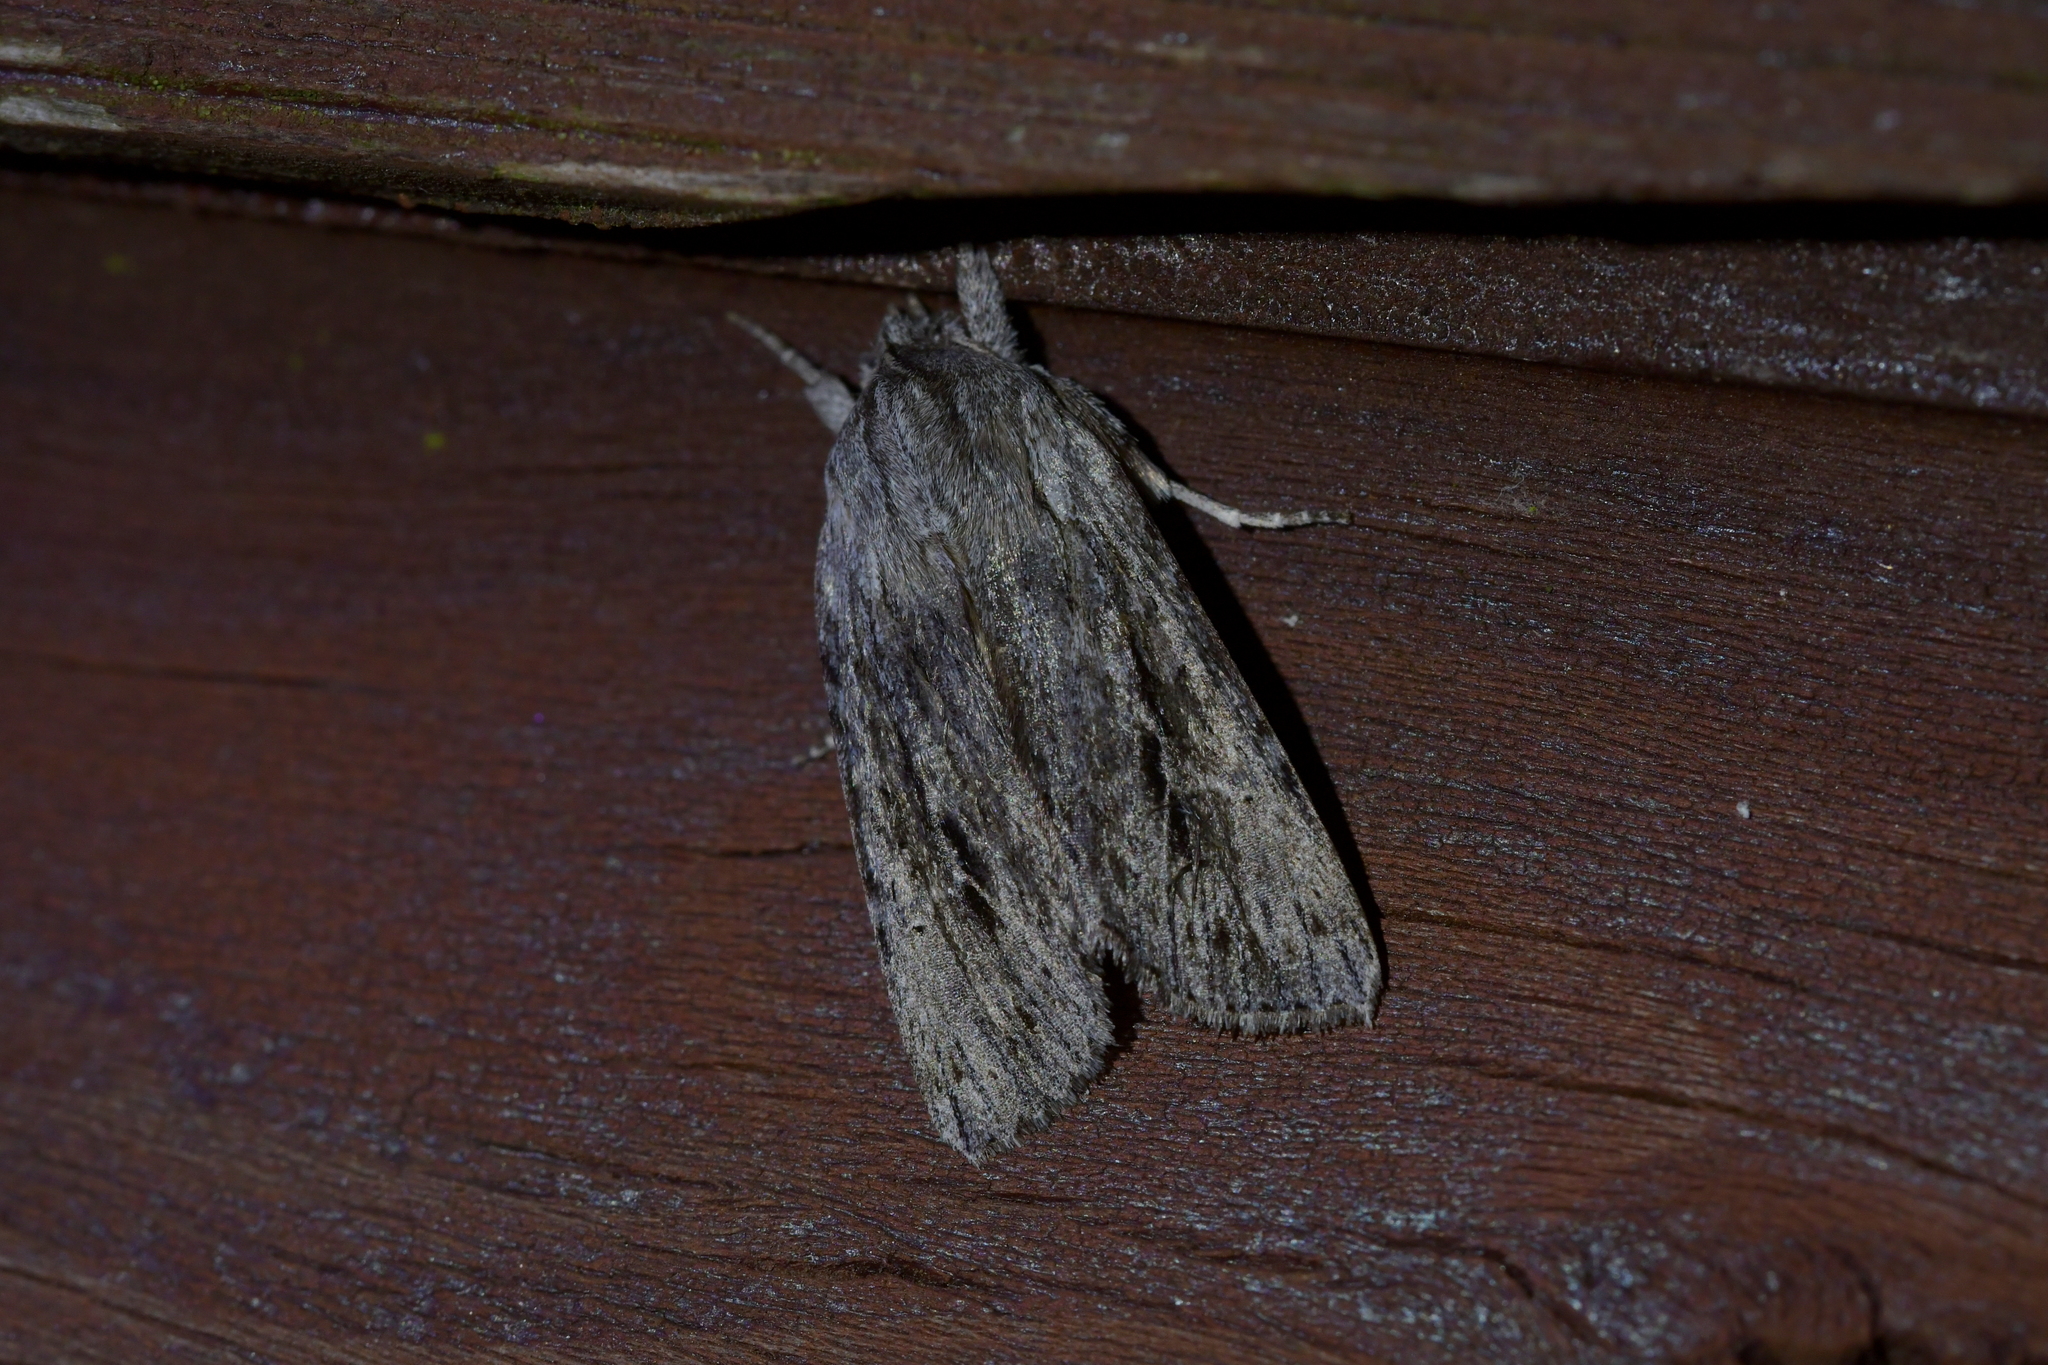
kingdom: Animalia
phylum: Arthropoda
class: Insecta
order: Lepidoptera
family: Noctuidae
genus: Physetica
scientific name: Physetica sequens
